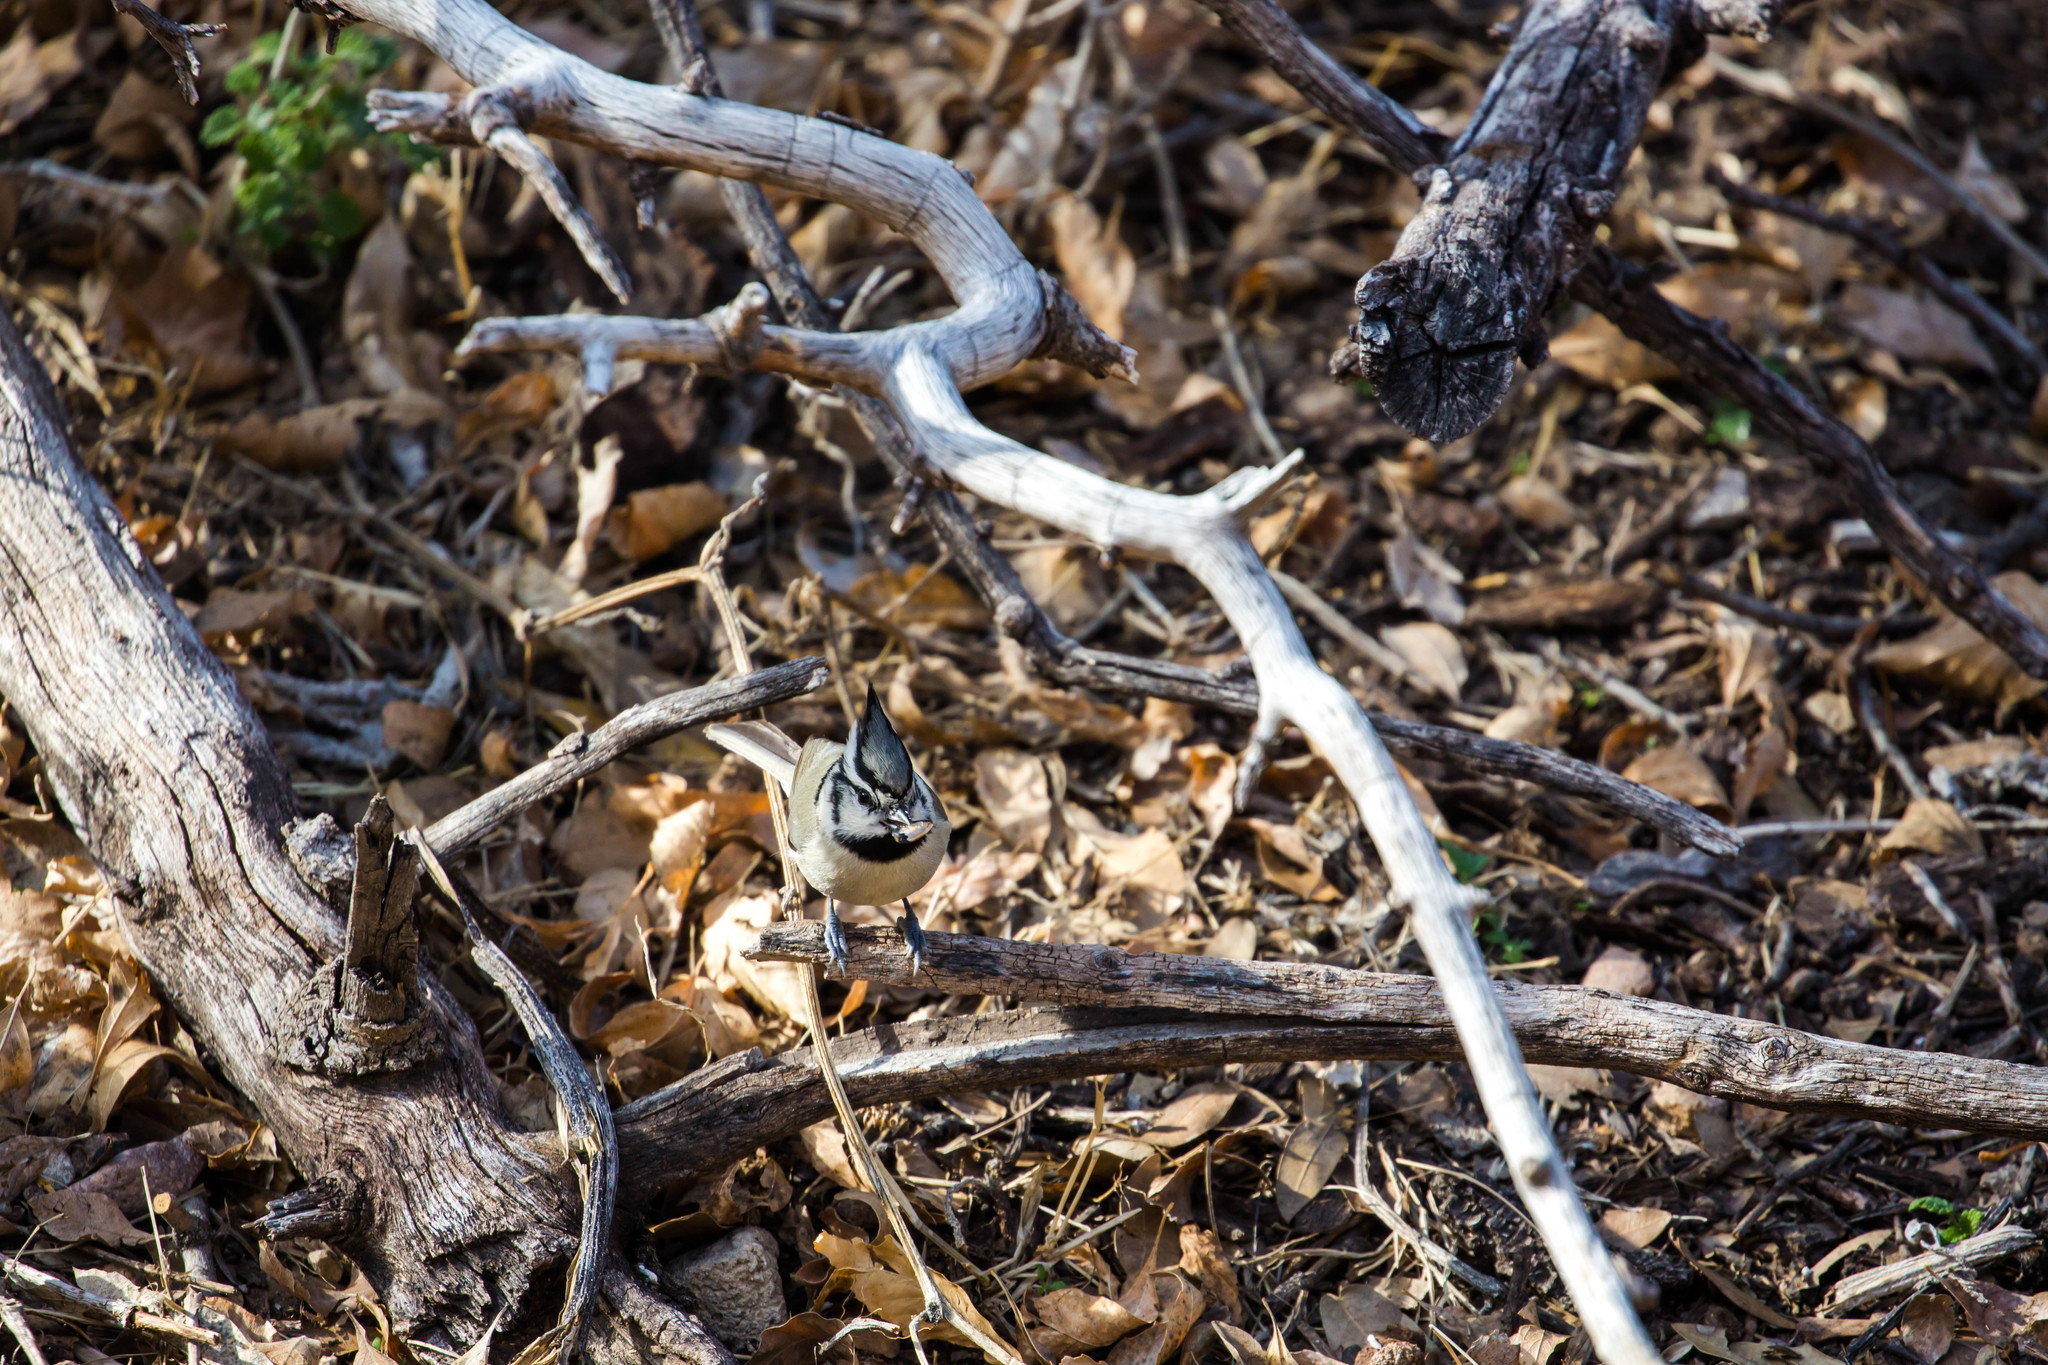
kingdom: Animalia
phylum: Chordata
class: Aves
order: Passeriformes
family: Paridae
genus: Baeolophus
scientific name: Baeolophus wollweberi
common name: Bridled titmouse
